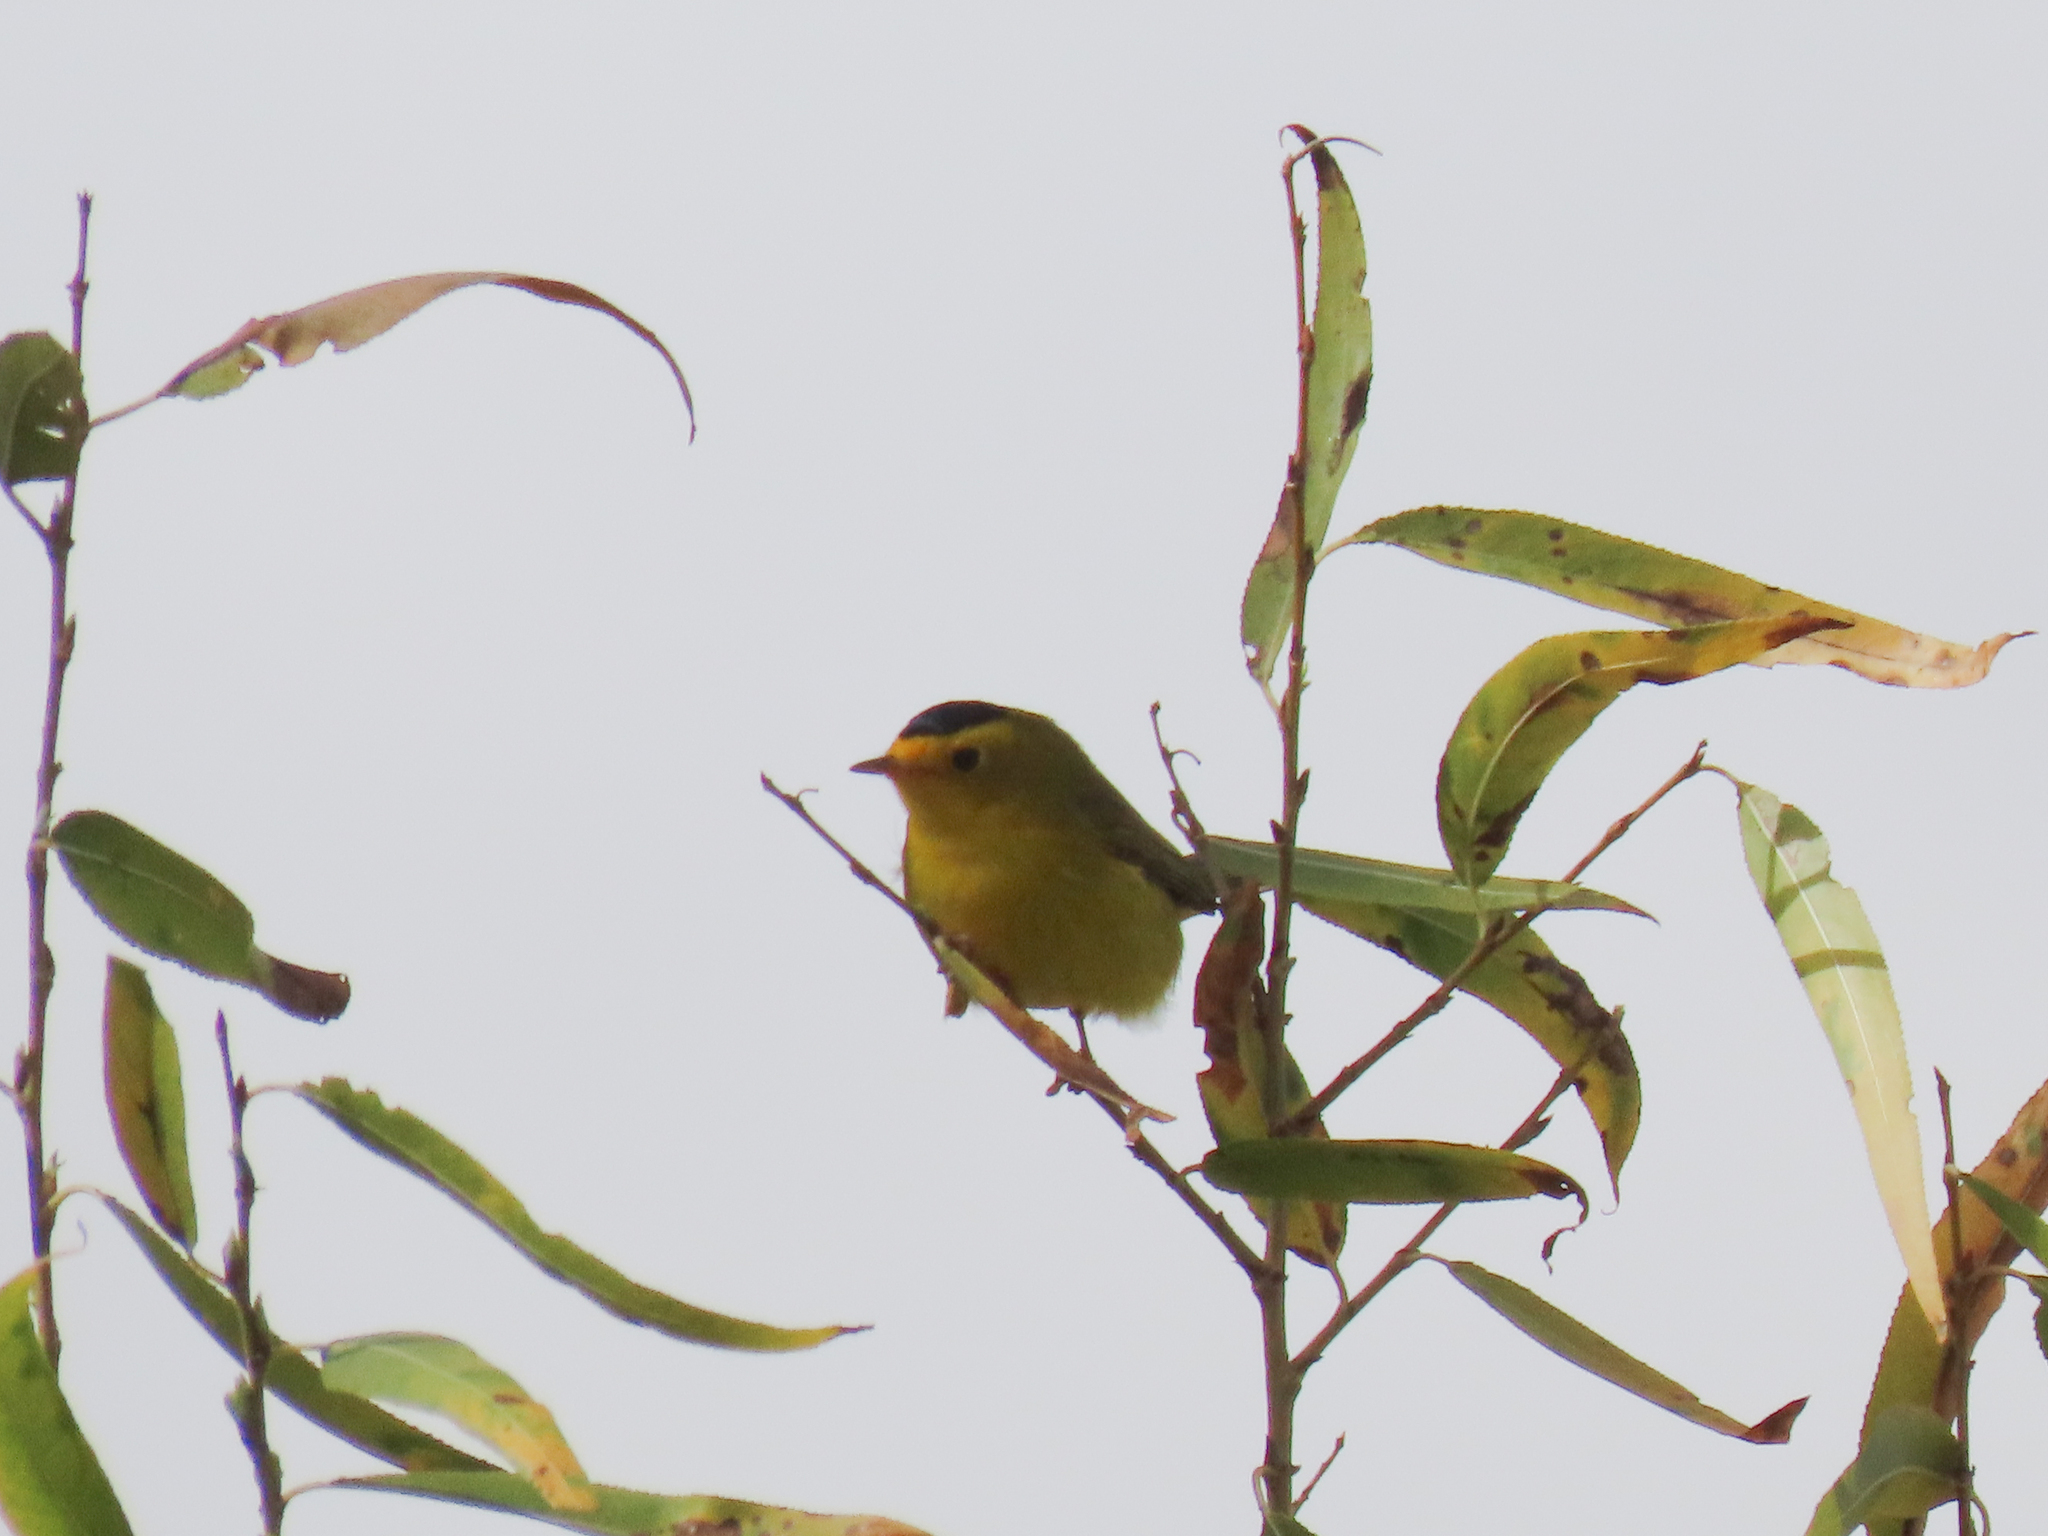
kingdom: Animalia
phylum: Chordata
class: Aves
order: Passeriformes
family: Parulidae
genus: Cardellina
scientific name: Cardellina pusilla
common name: Wilson's warbler
